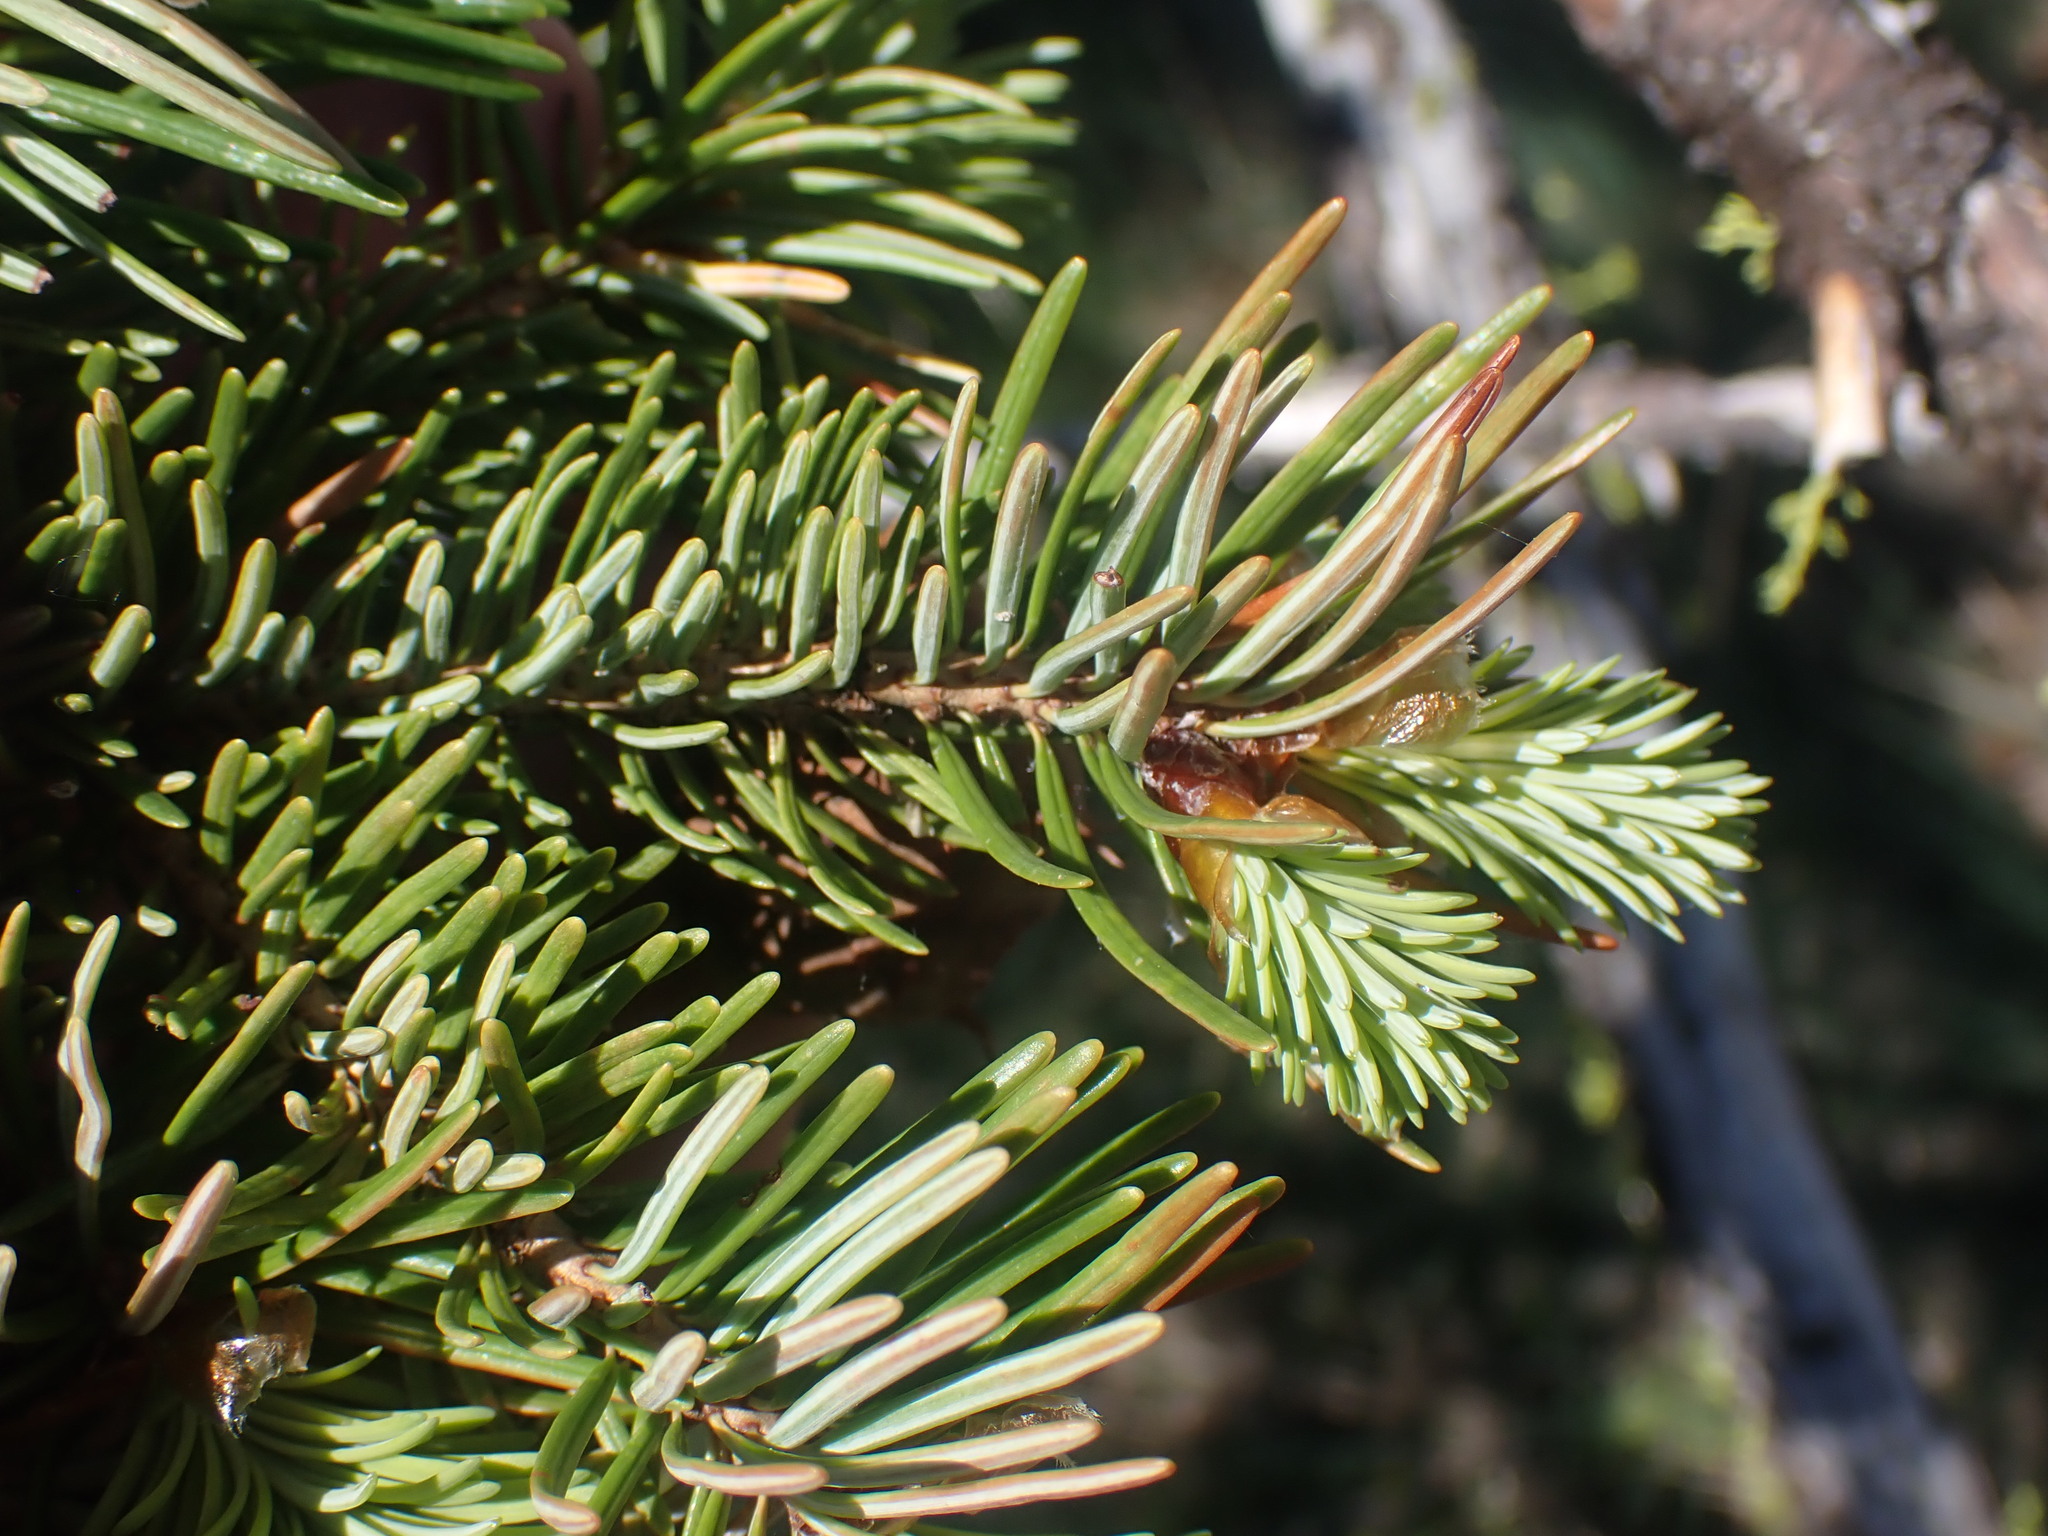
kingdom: Plantae
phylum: Tracheophyta
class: Pinopsida
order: Pinales
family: Pinaceae
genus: Pseudotsuga
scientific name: Pseudotsuga menziesii
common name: Douglas fir
